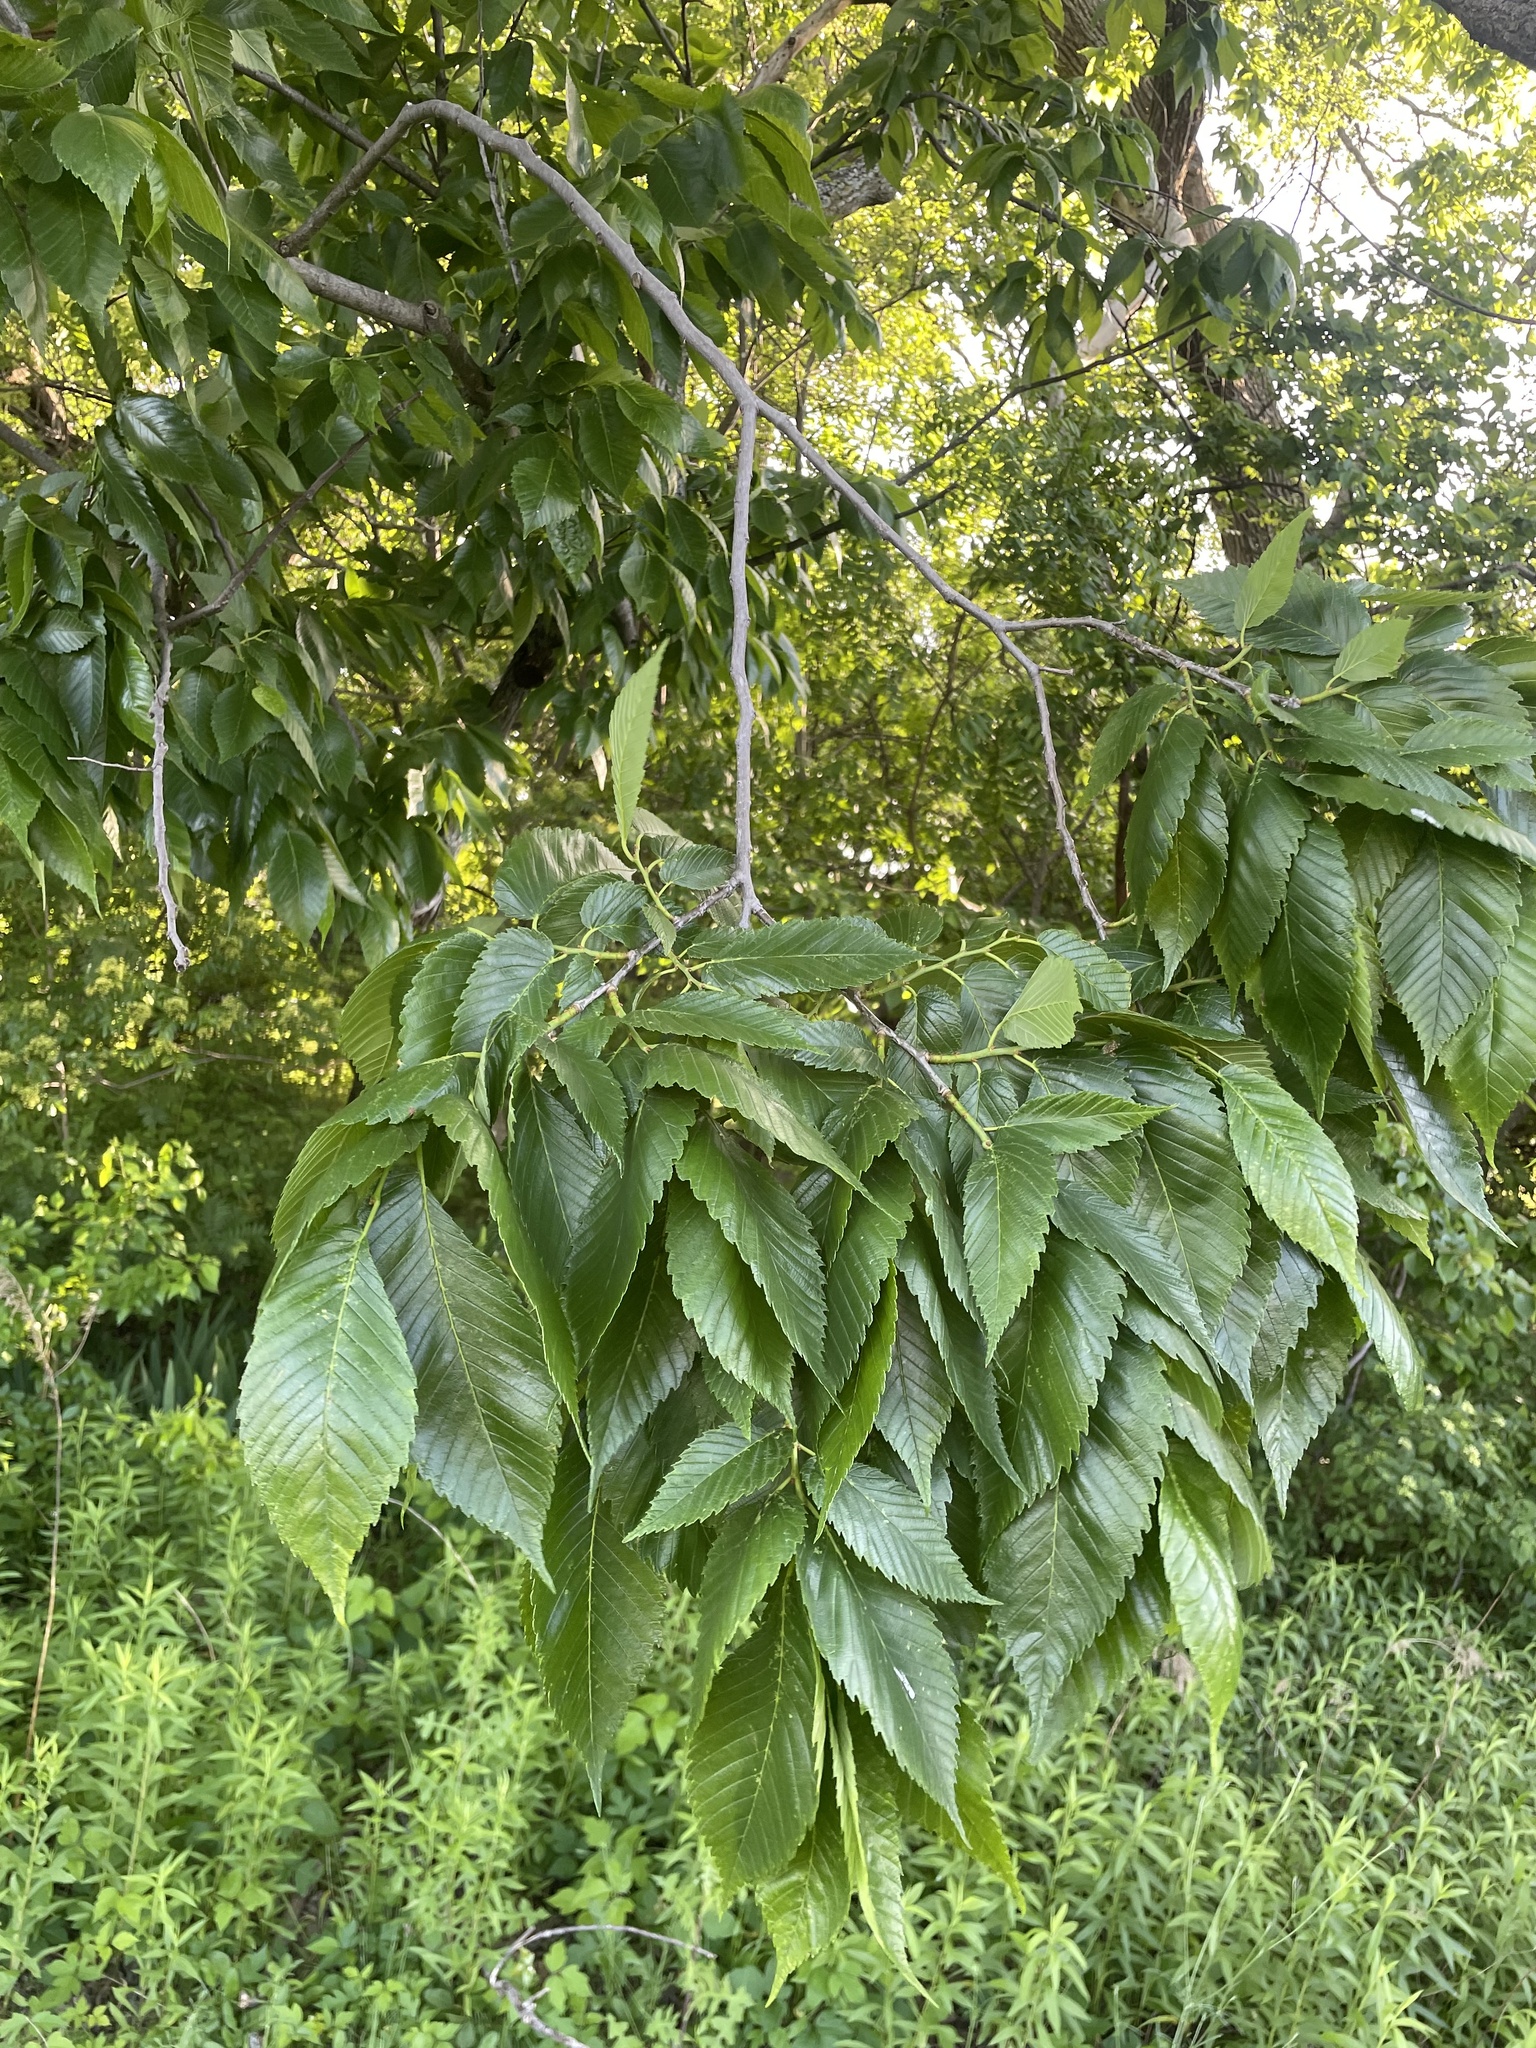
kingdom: Plantae
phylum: Tracheophyta
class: Magnoliopsida
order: Rosales
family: Ulmaceae
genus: Ulmus
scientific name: Ulmus americana
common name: American elm
